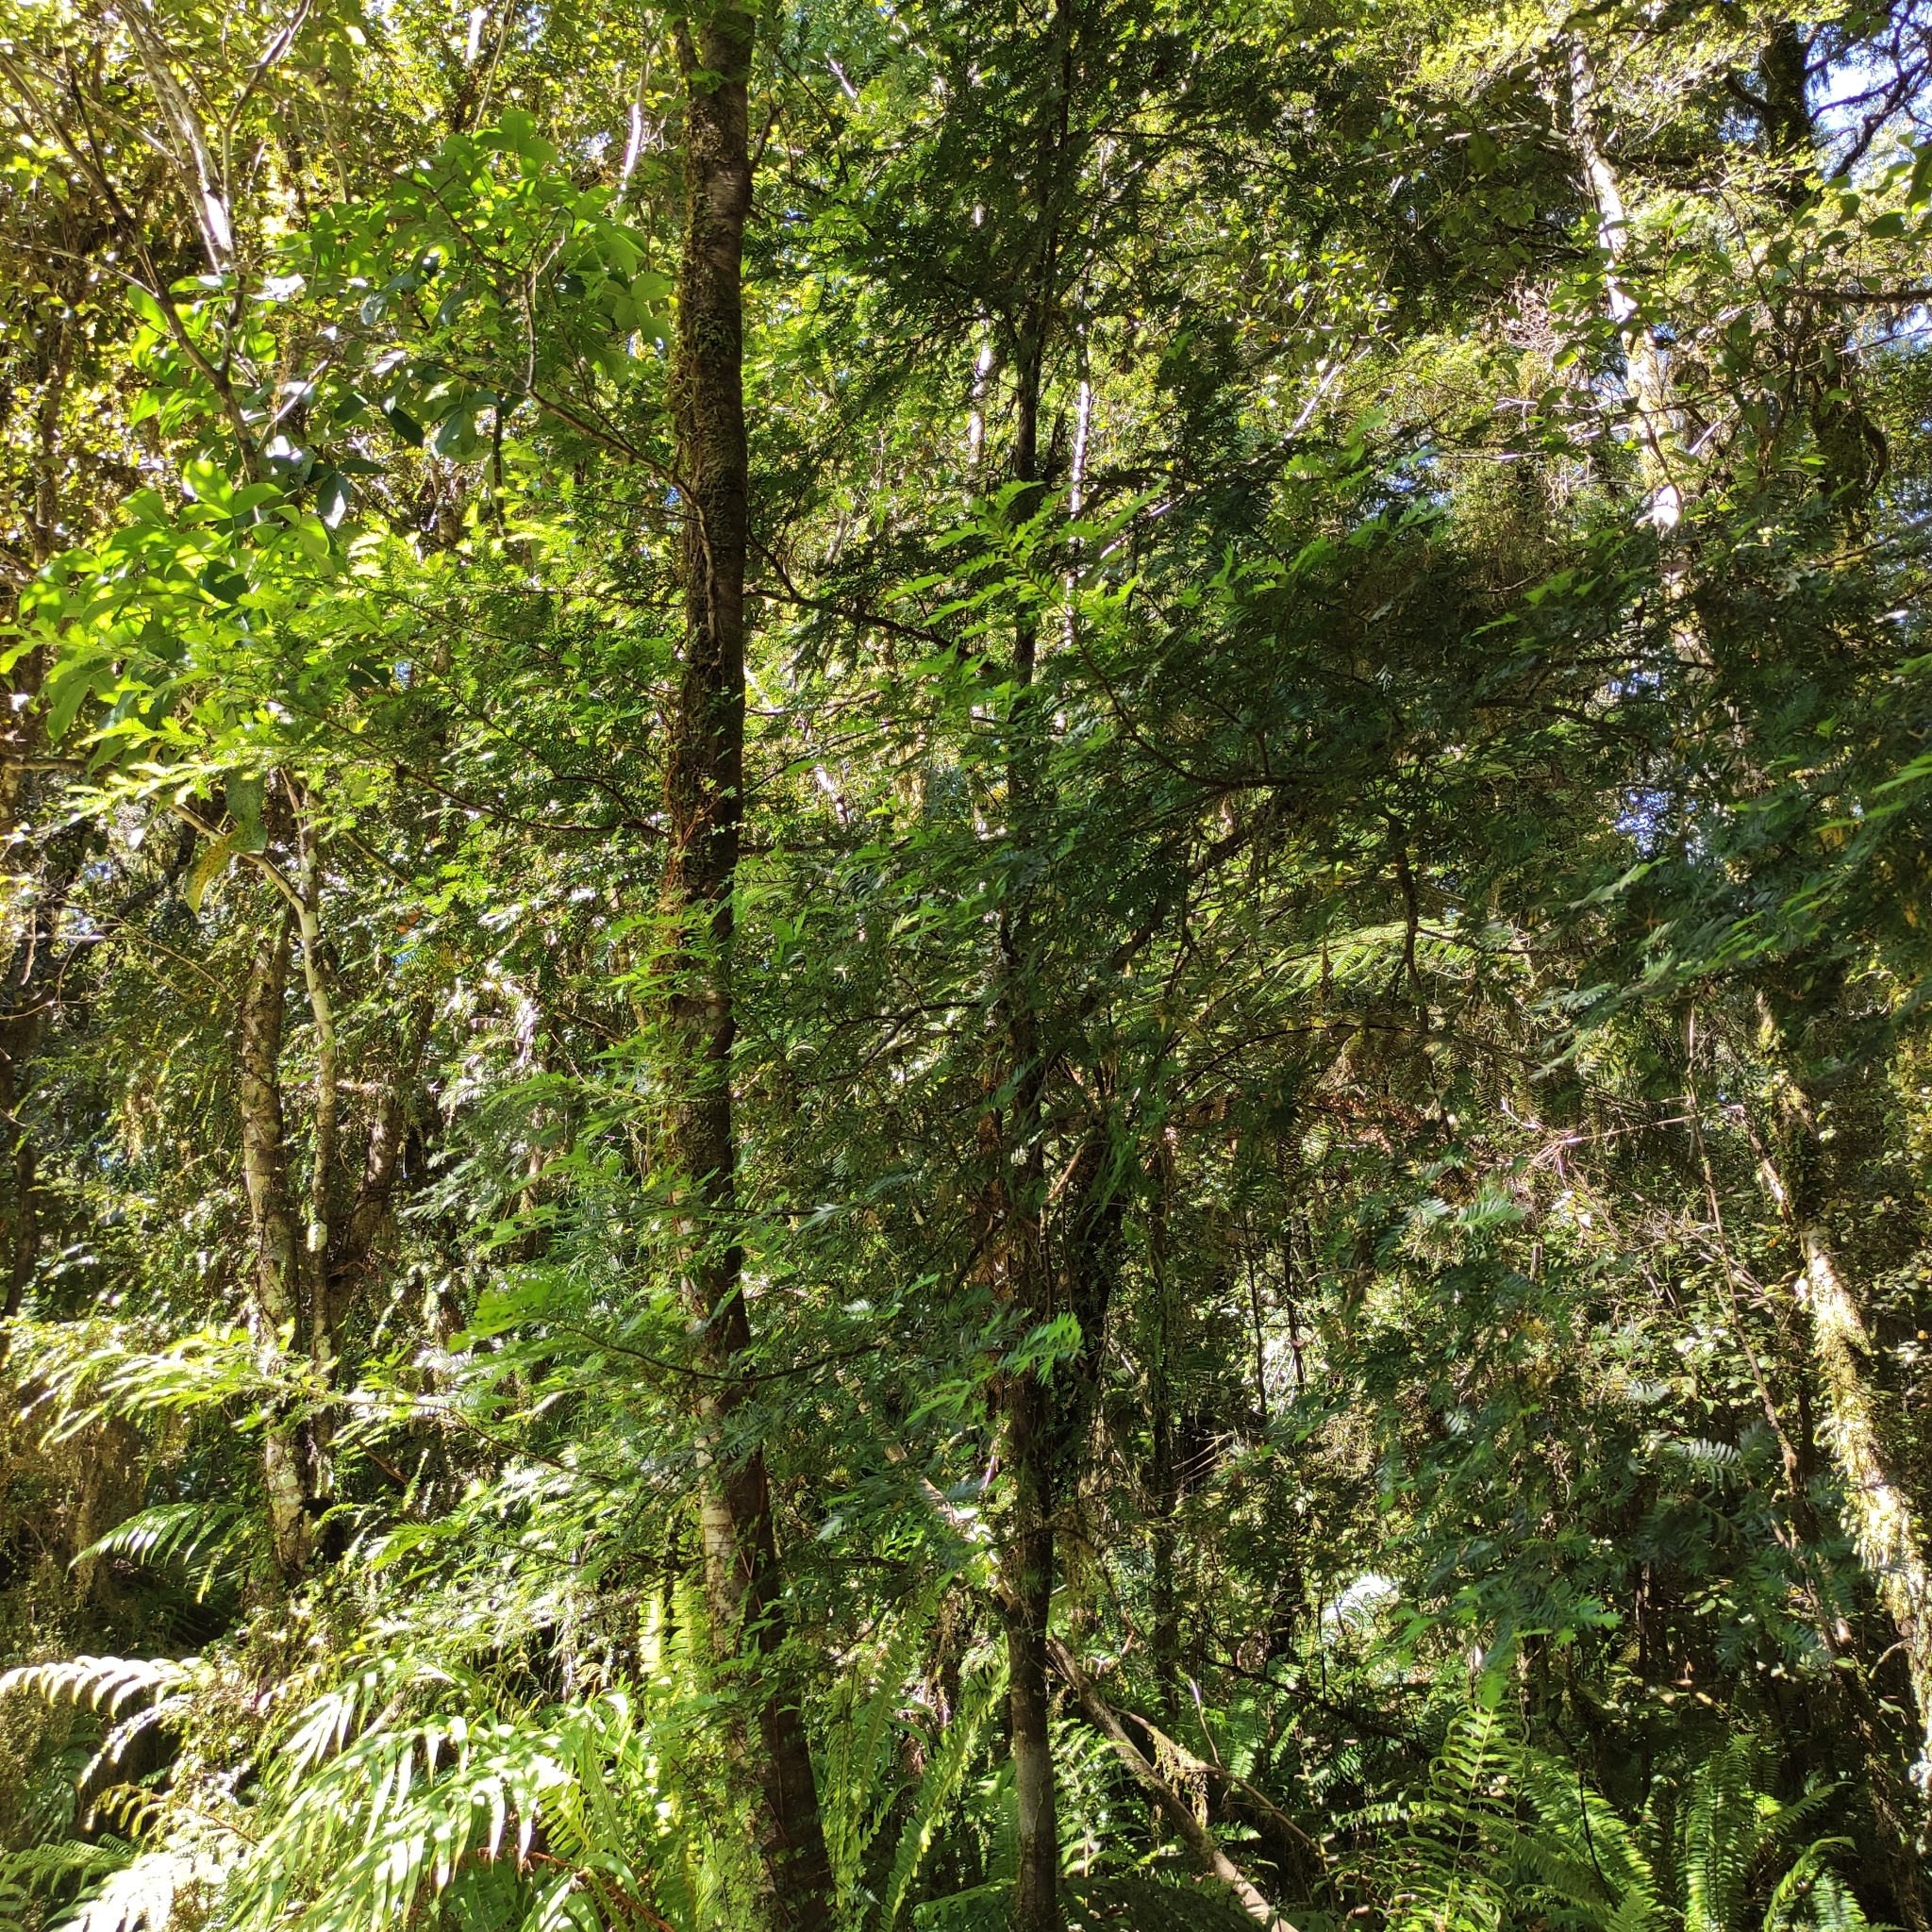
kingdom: Plantae
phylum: Tracheophyta
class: Pinopsida
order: Pinales
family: Podocarpaceae
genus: Prumnopitys
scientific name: Prumnopitys ferruginea
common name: Brown pine
